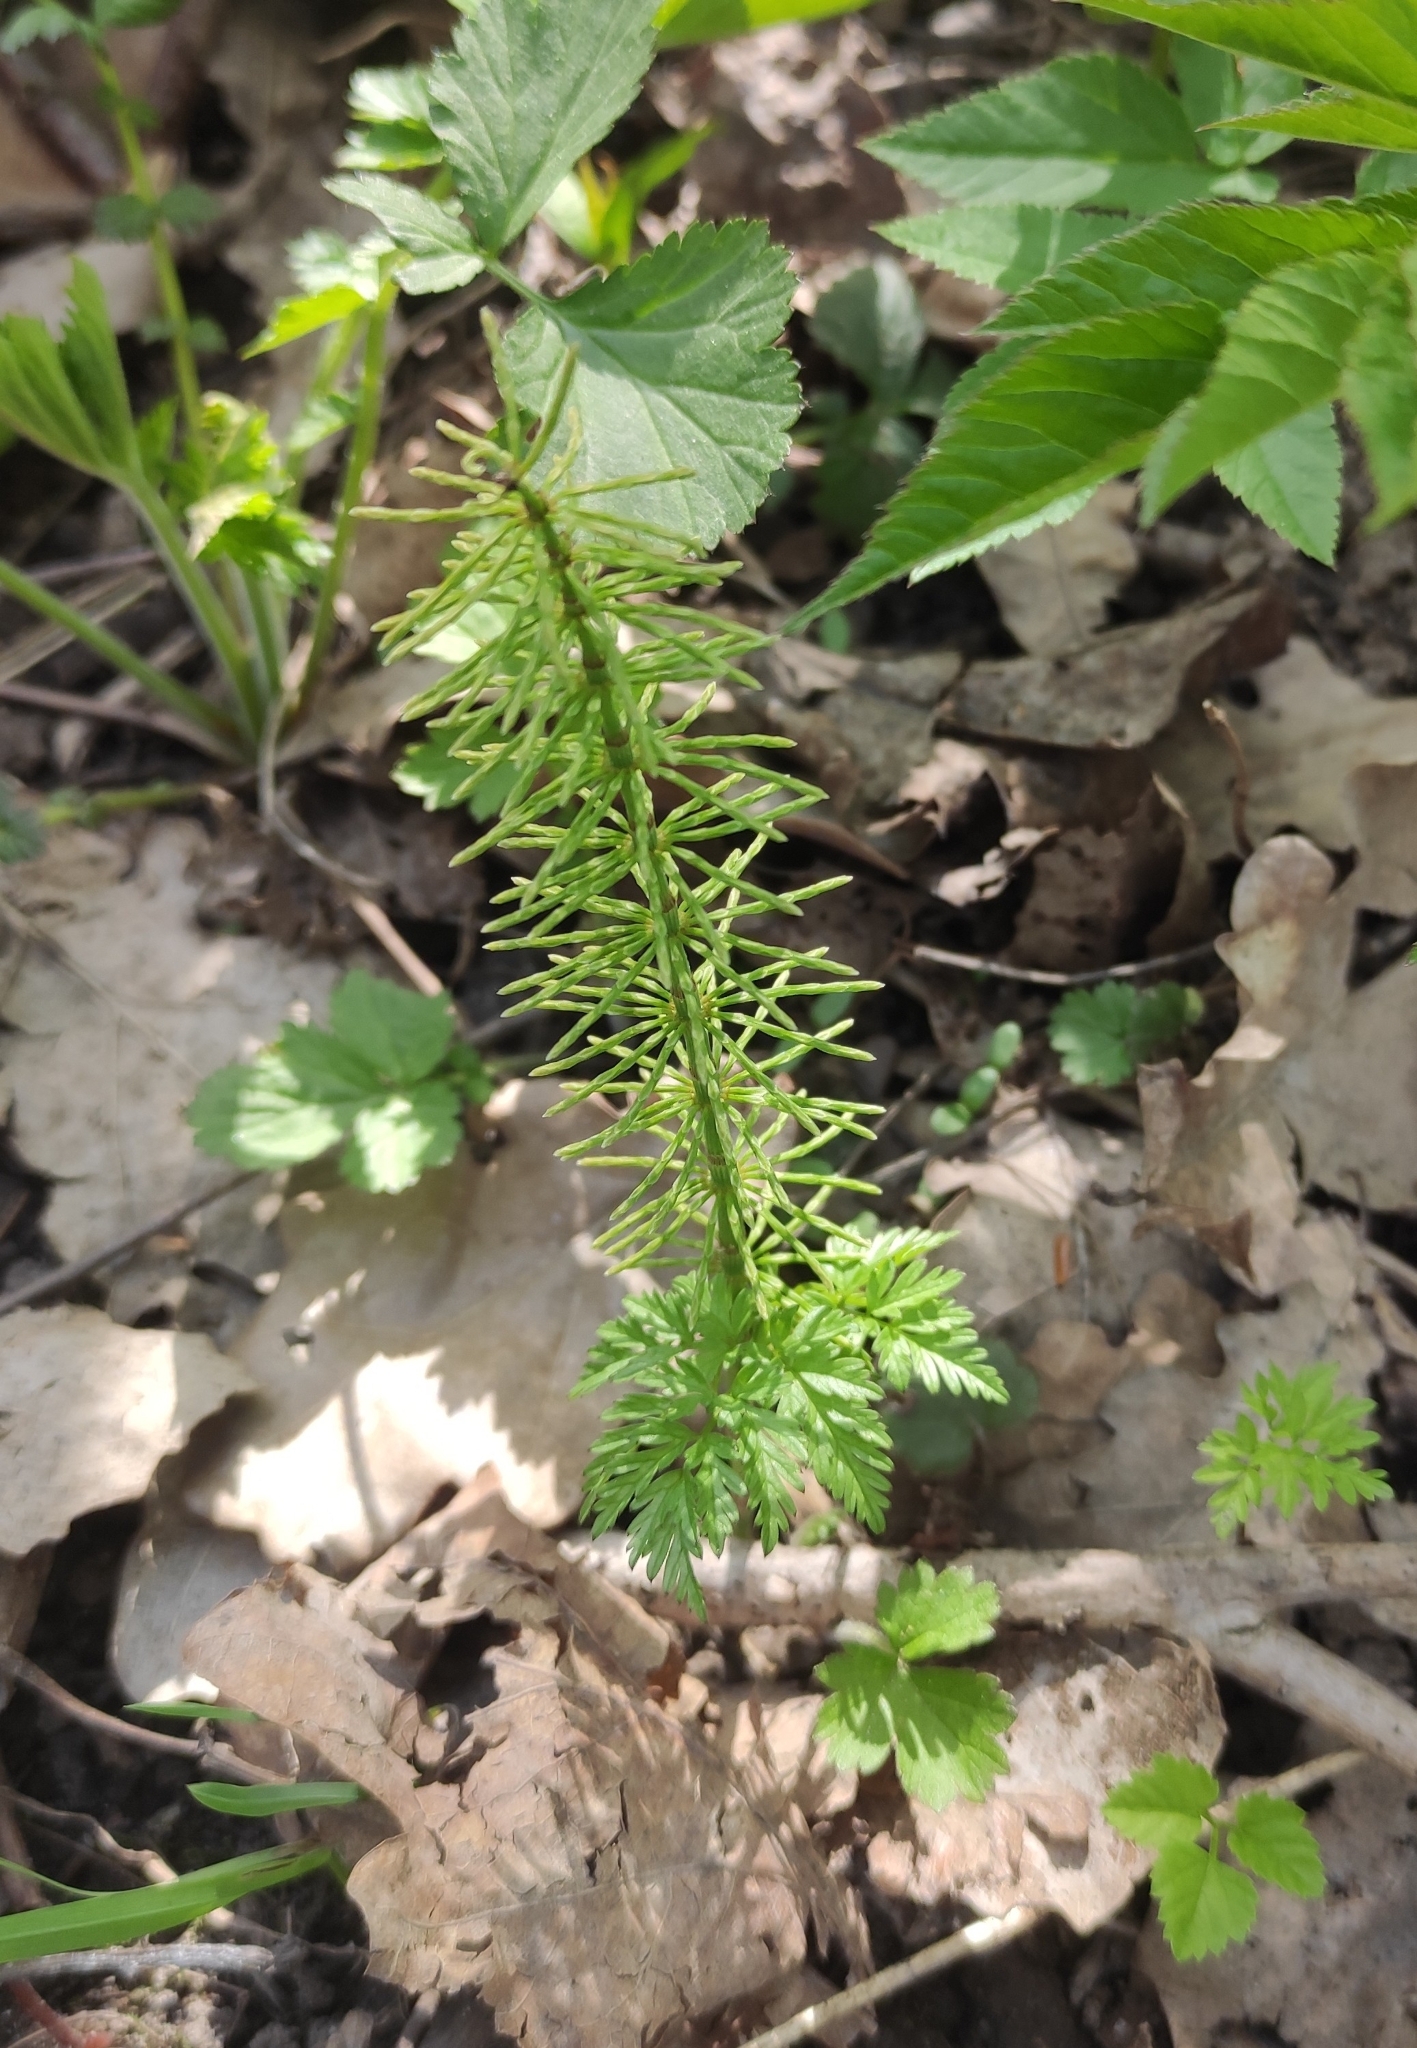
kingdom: Plantae
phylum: Tracheophyta
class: Polypodiopsida
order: Equisetales
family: Equisetaceae
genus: Equisetum
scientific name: Equisetum pratense
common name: Meadow horsetail
